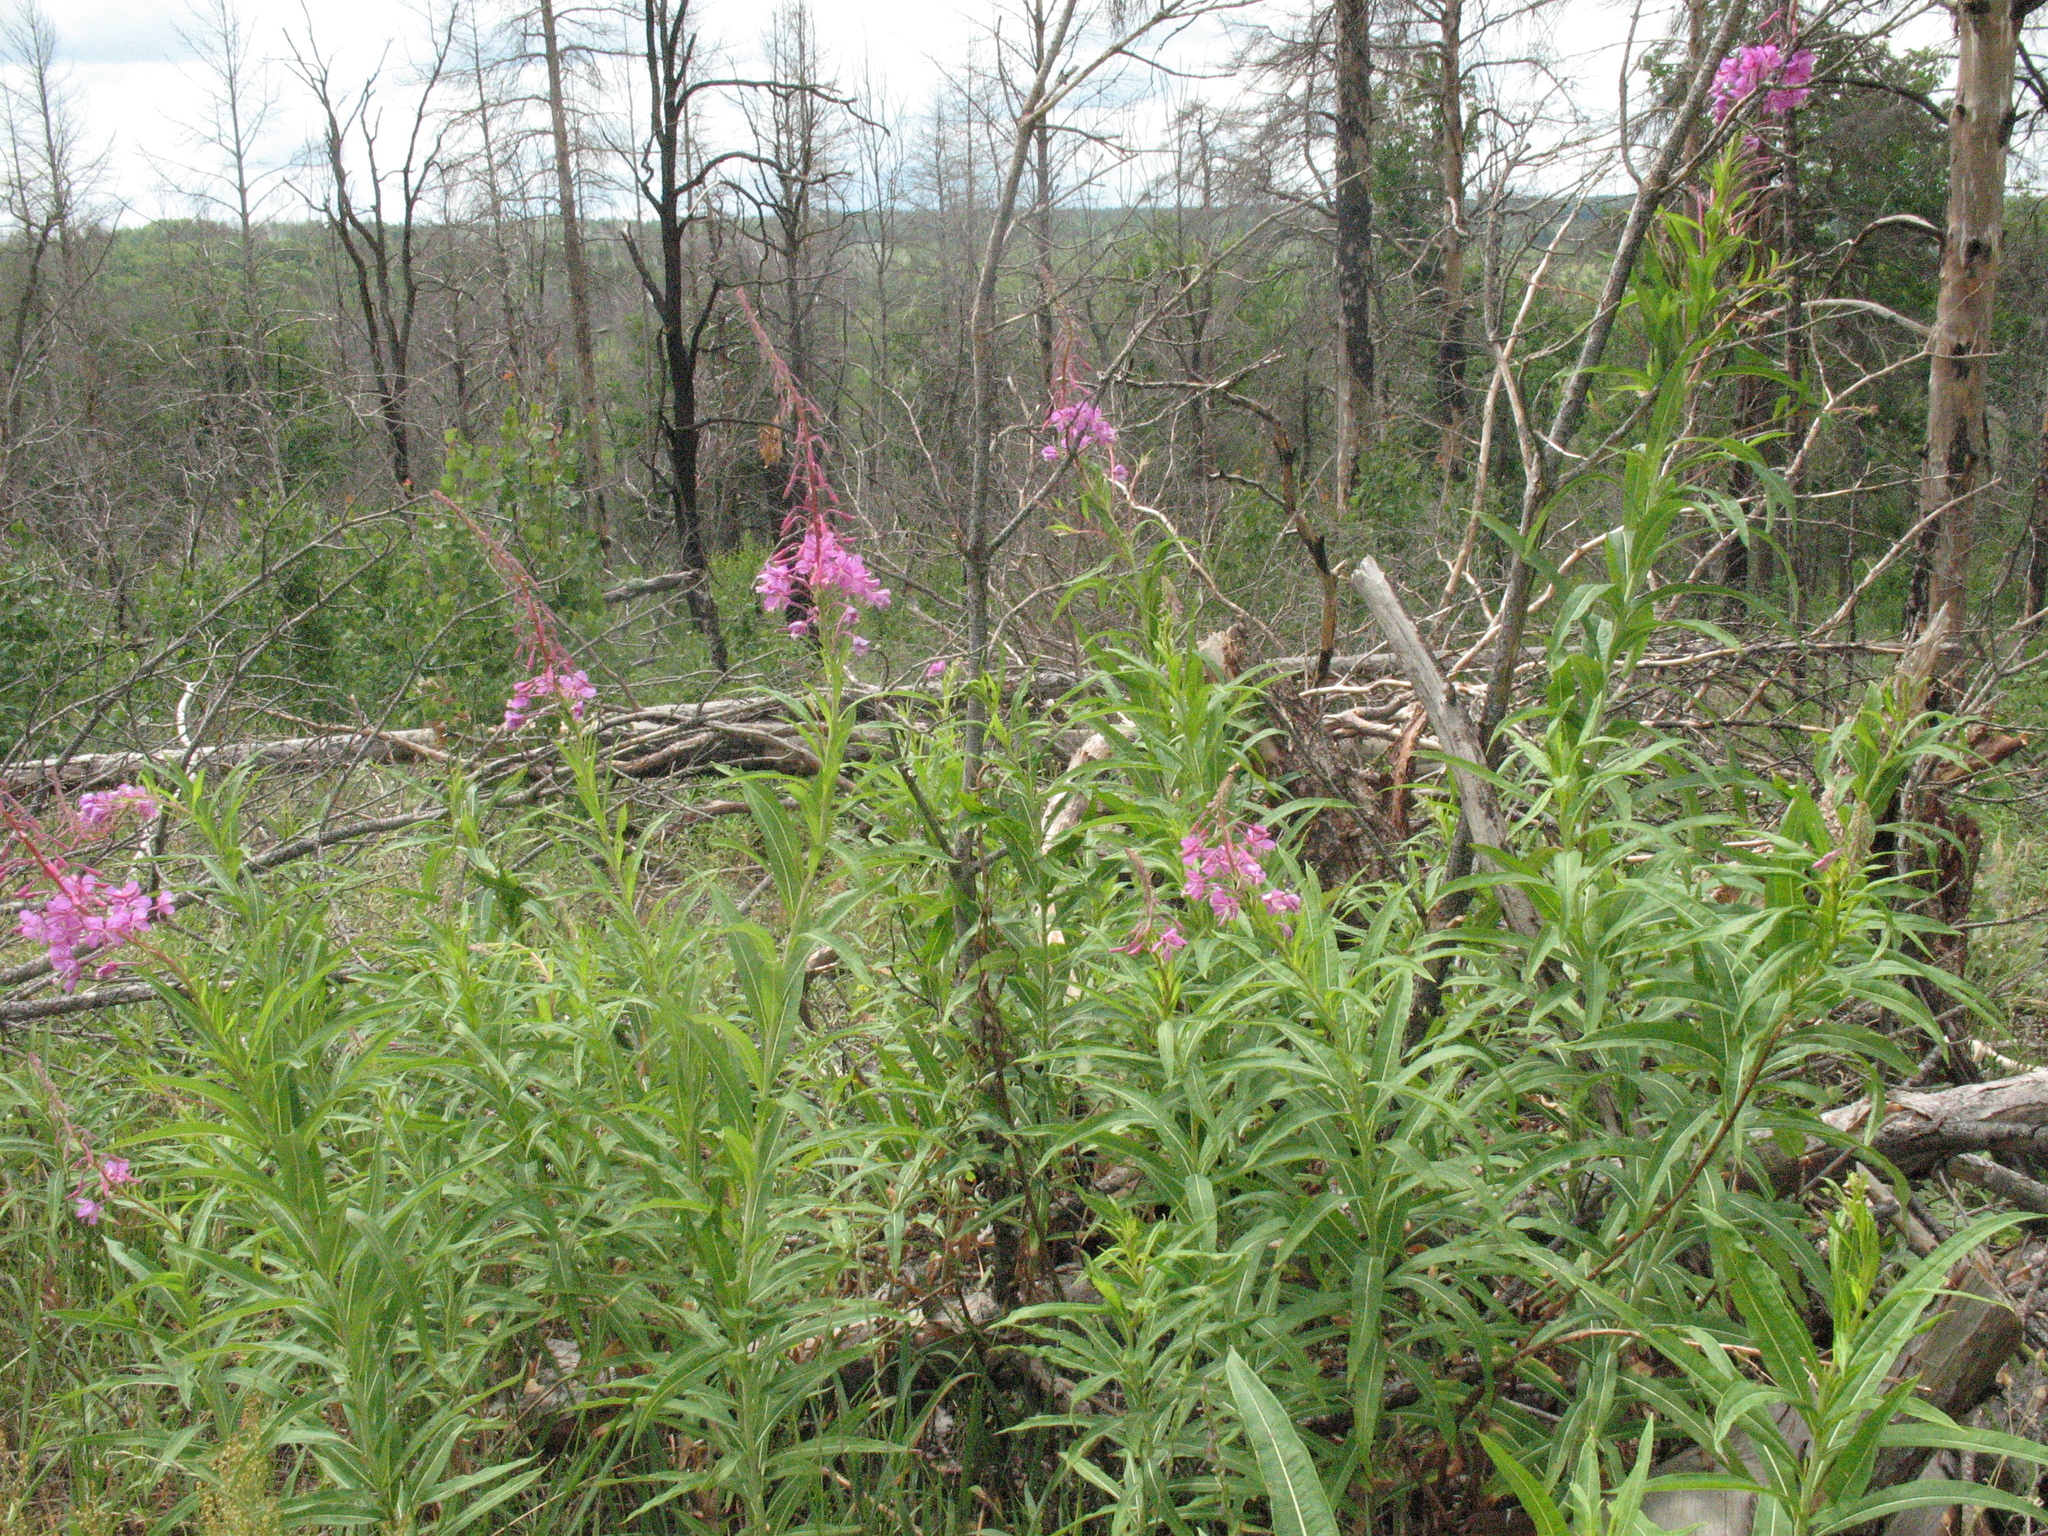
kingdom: Plantae
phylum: Tracheophyta
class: Magnoliopsida
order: Myrtales
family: Onagraceae
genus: Chamaenerion
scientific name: Chamaenerion angustifolium
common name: Fireweed
